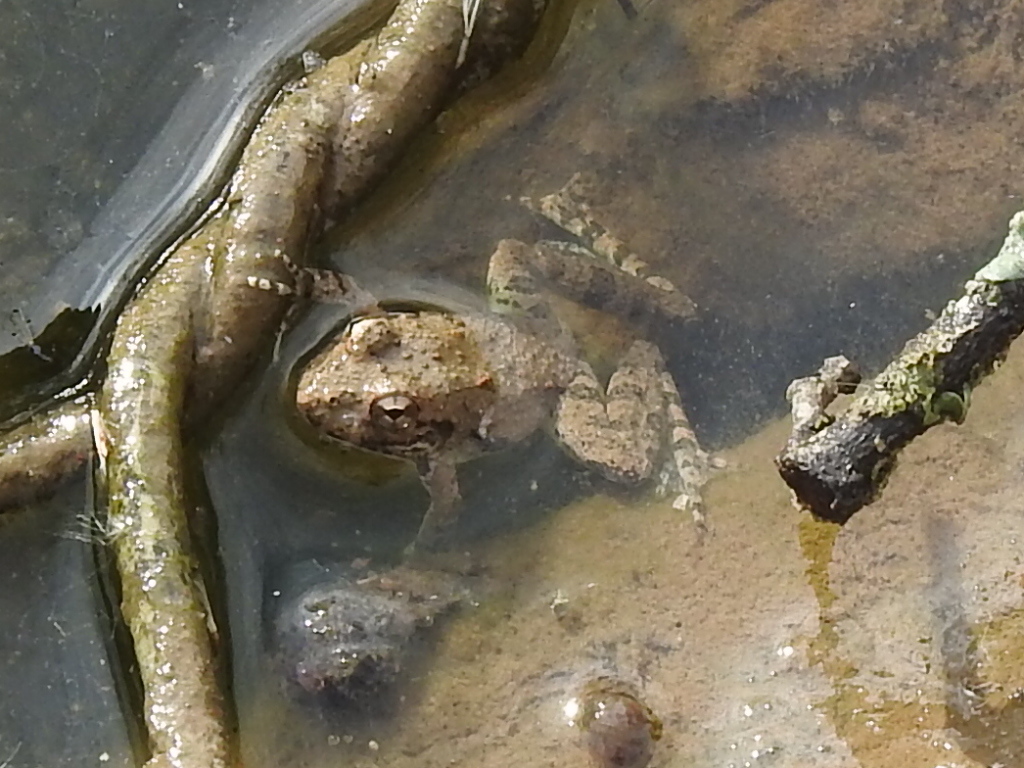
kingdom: Animalia
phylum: Chordata
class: Amphibia
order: Anura
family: Hylidae
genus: Acris
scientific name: Acris blanchardi
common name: Blanchard's cricket frog
